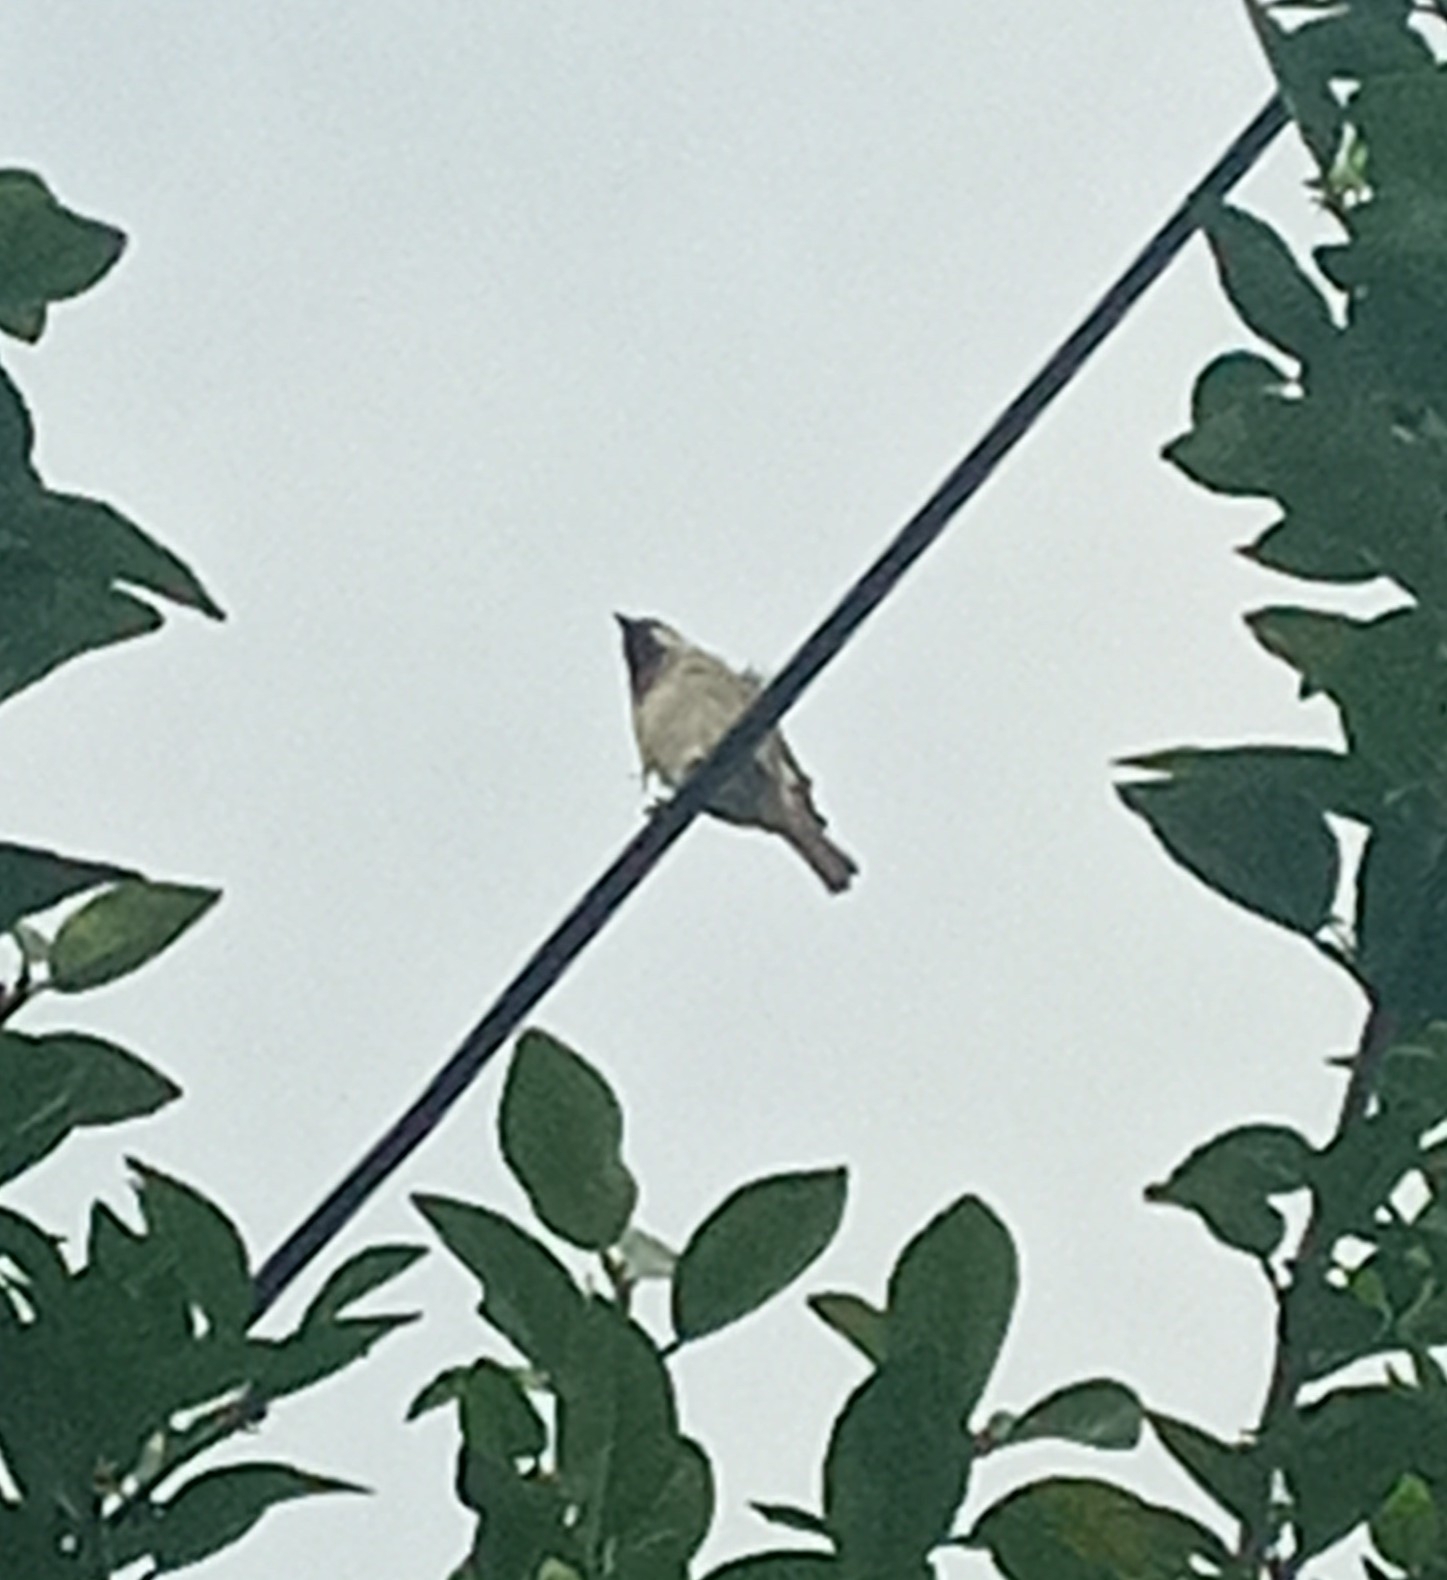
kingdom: Animalia
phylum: Chordata
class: Aves
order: Passeriformes
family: Passeridae
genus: Passer
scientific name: Passer domesticus
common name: House sparrow
